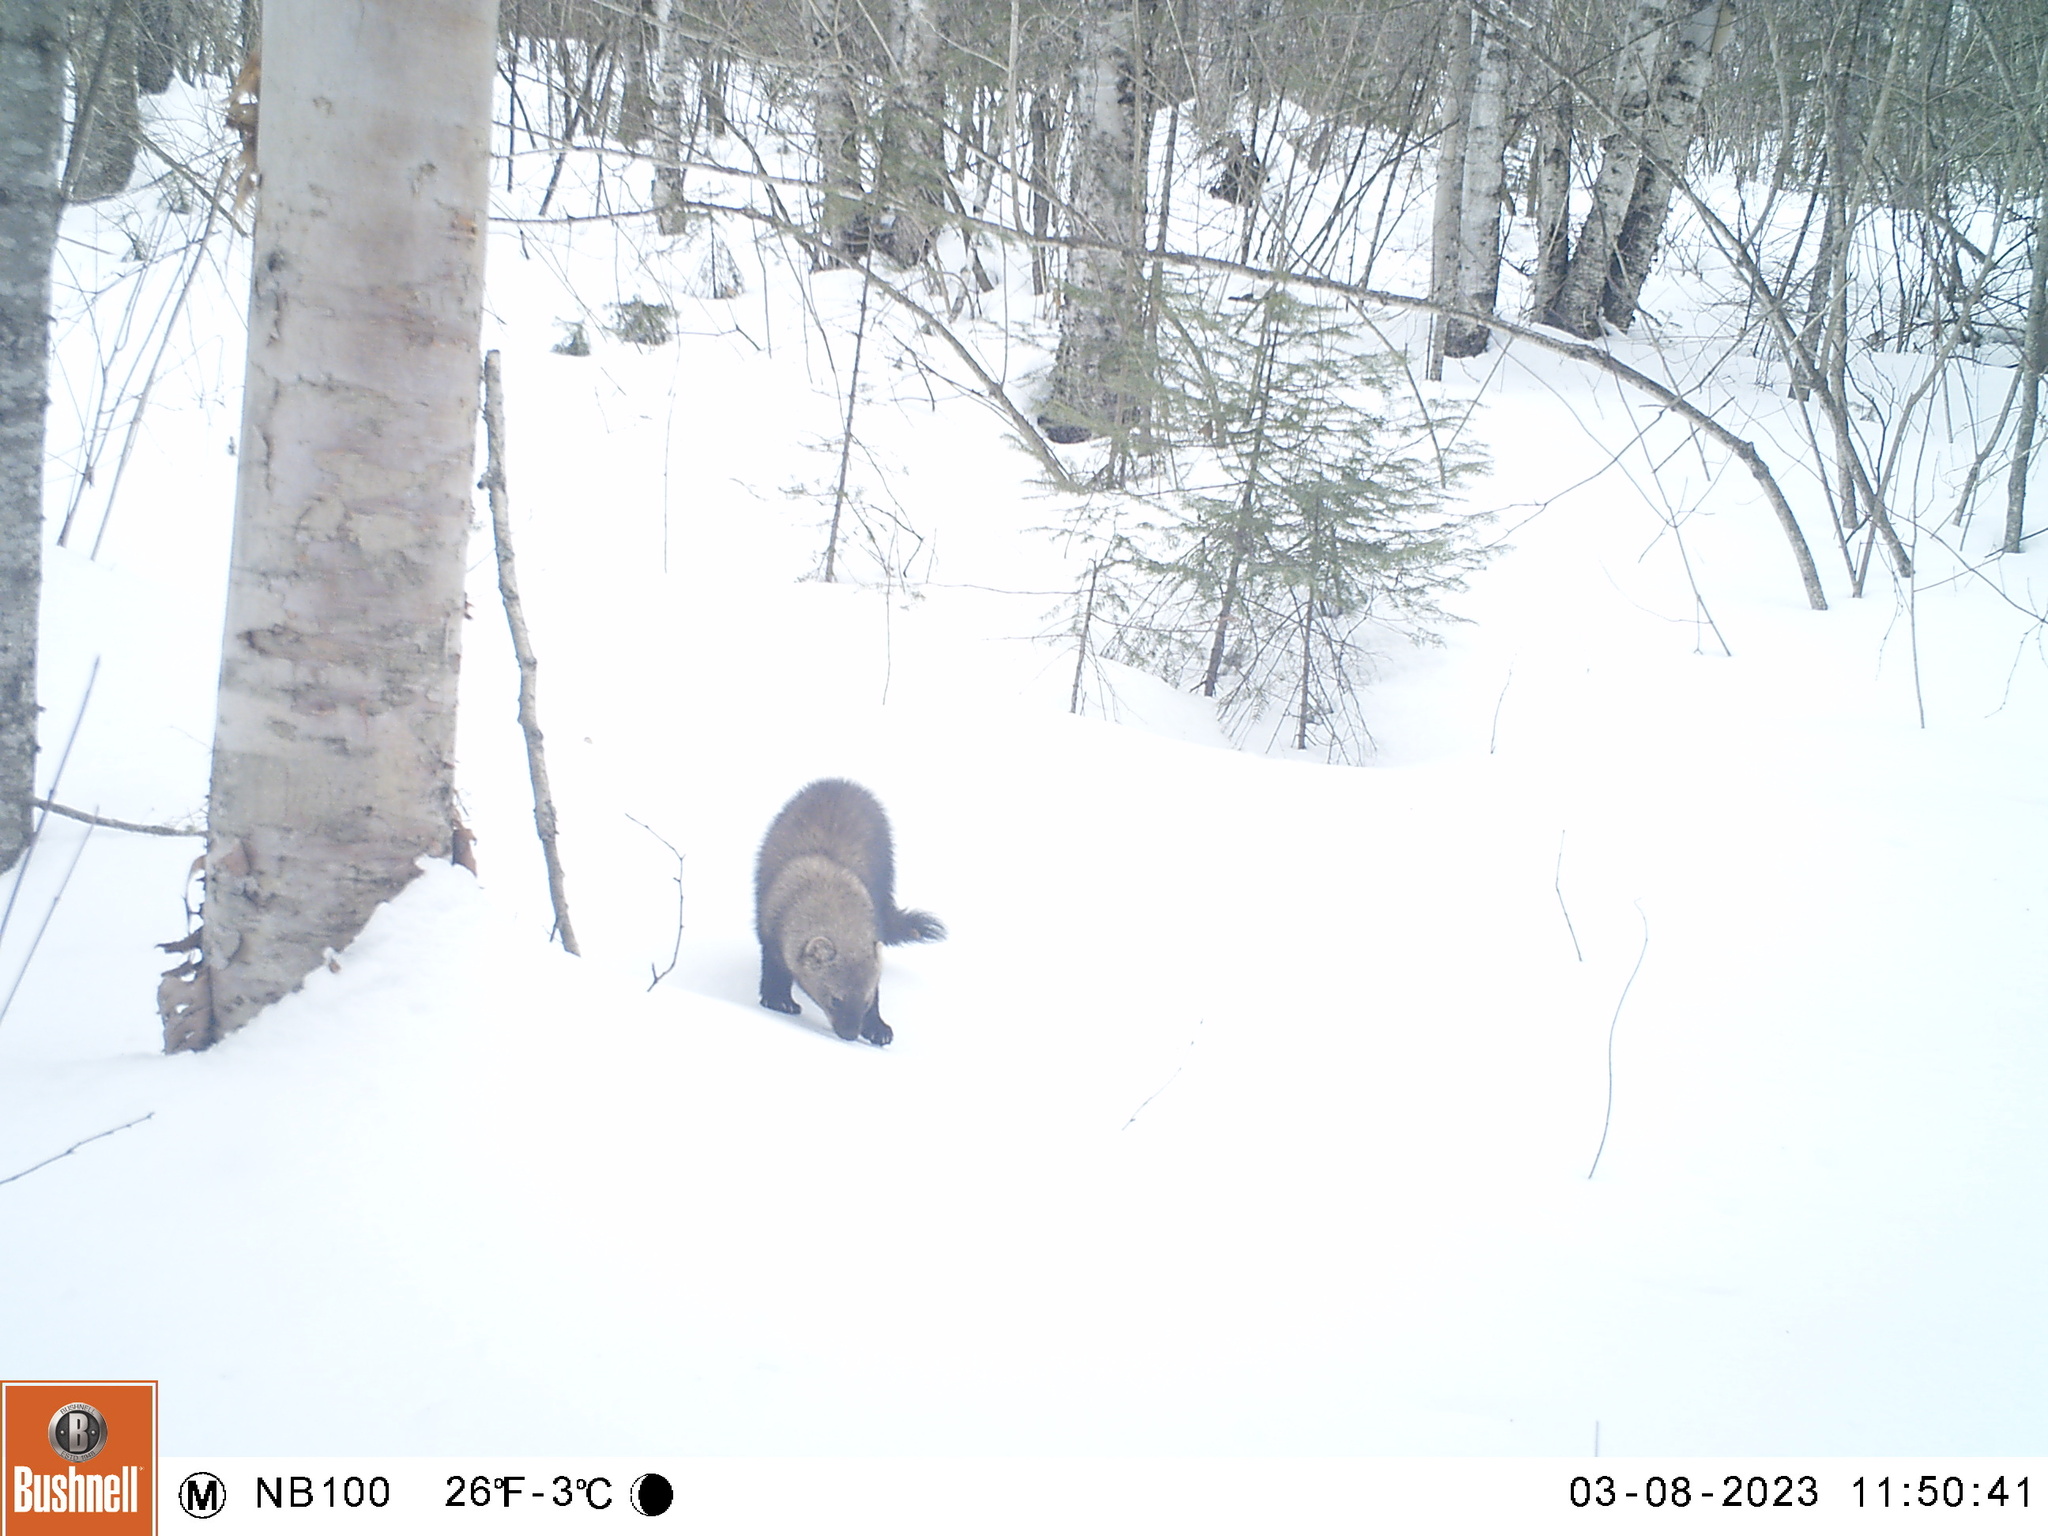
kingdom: Animalia
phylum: Chordata
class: Mammalia
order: Carnivora
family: Mustelidae
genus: Pekania
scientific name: Pekania pennanti
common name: Fisher
